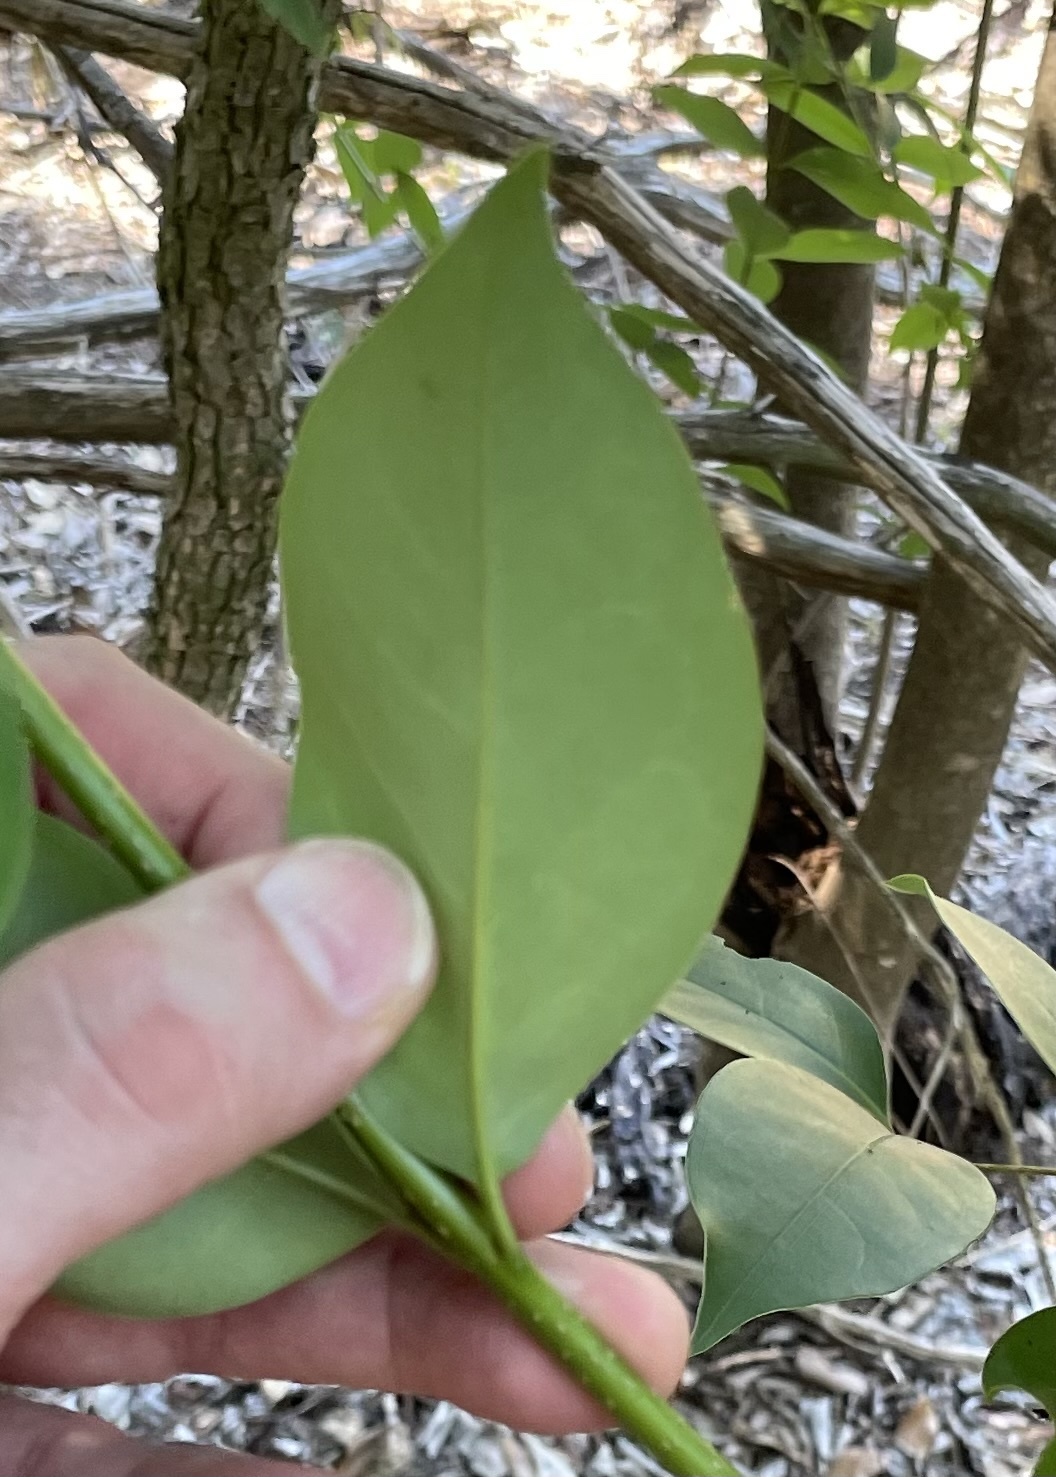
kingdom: Plantae
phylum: Tracheophyta
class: Magnoliopsida
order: Lamiales
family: Oleaceae
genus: Ligustrum
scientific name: Ligustrum lucidum
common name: Glossy privet
